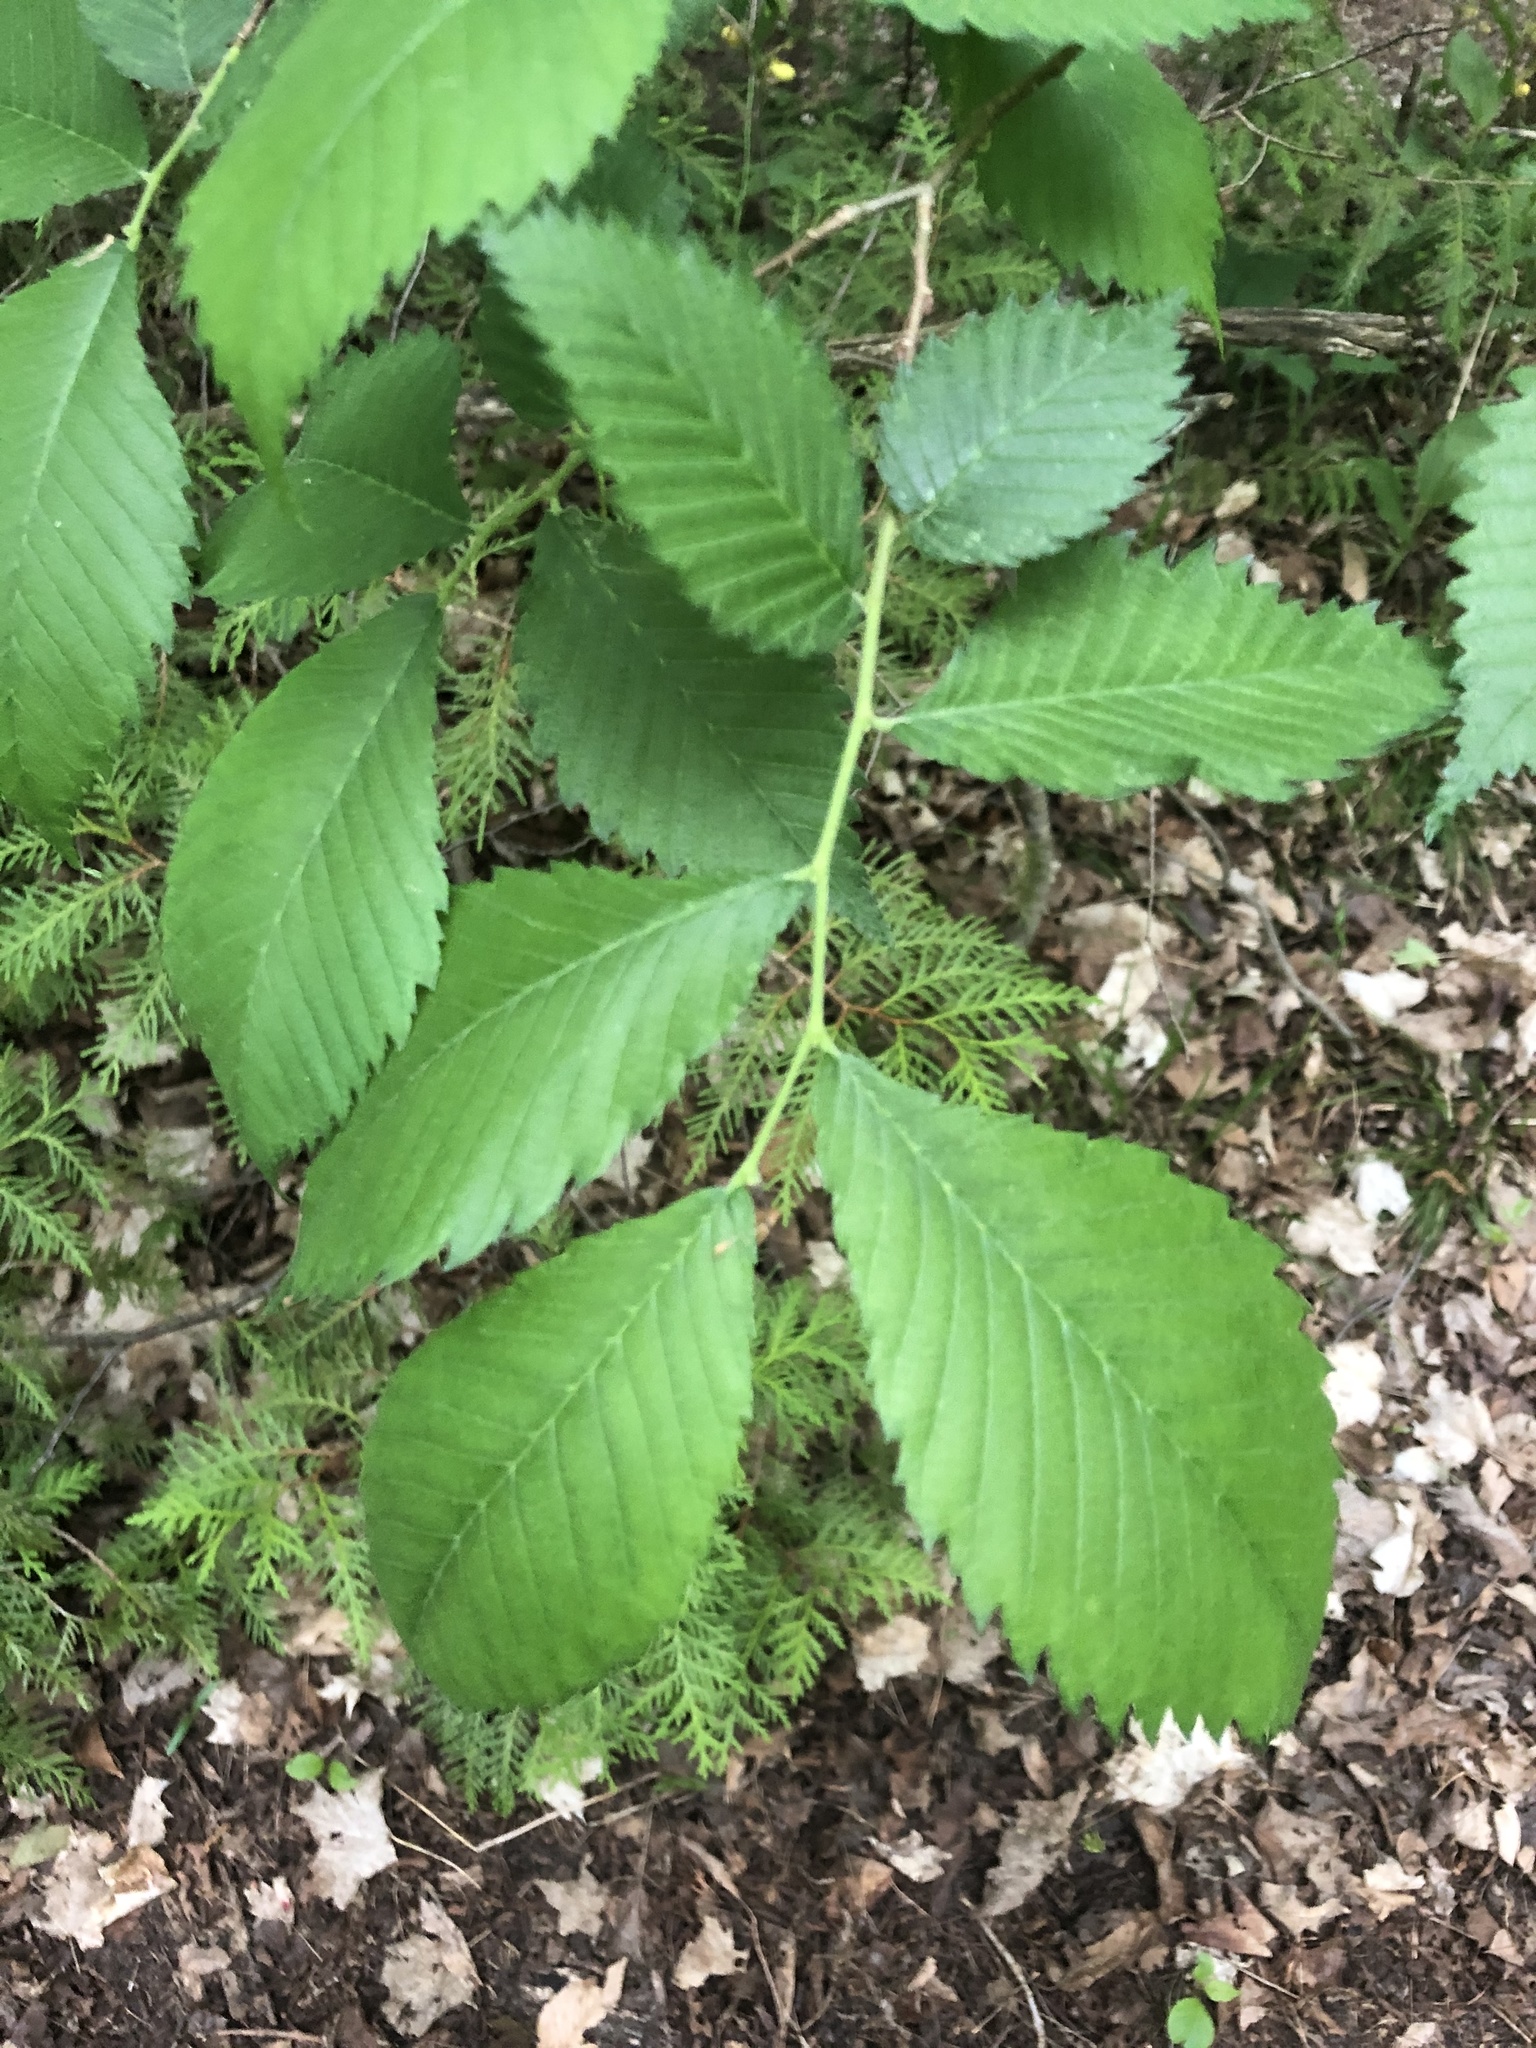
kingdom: Plantae
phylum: Tracheophyta
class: Magnoliopsida
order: Rosales
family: Ulmaceae
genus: Ulmus
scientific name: Ulmus americana
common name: American elm
